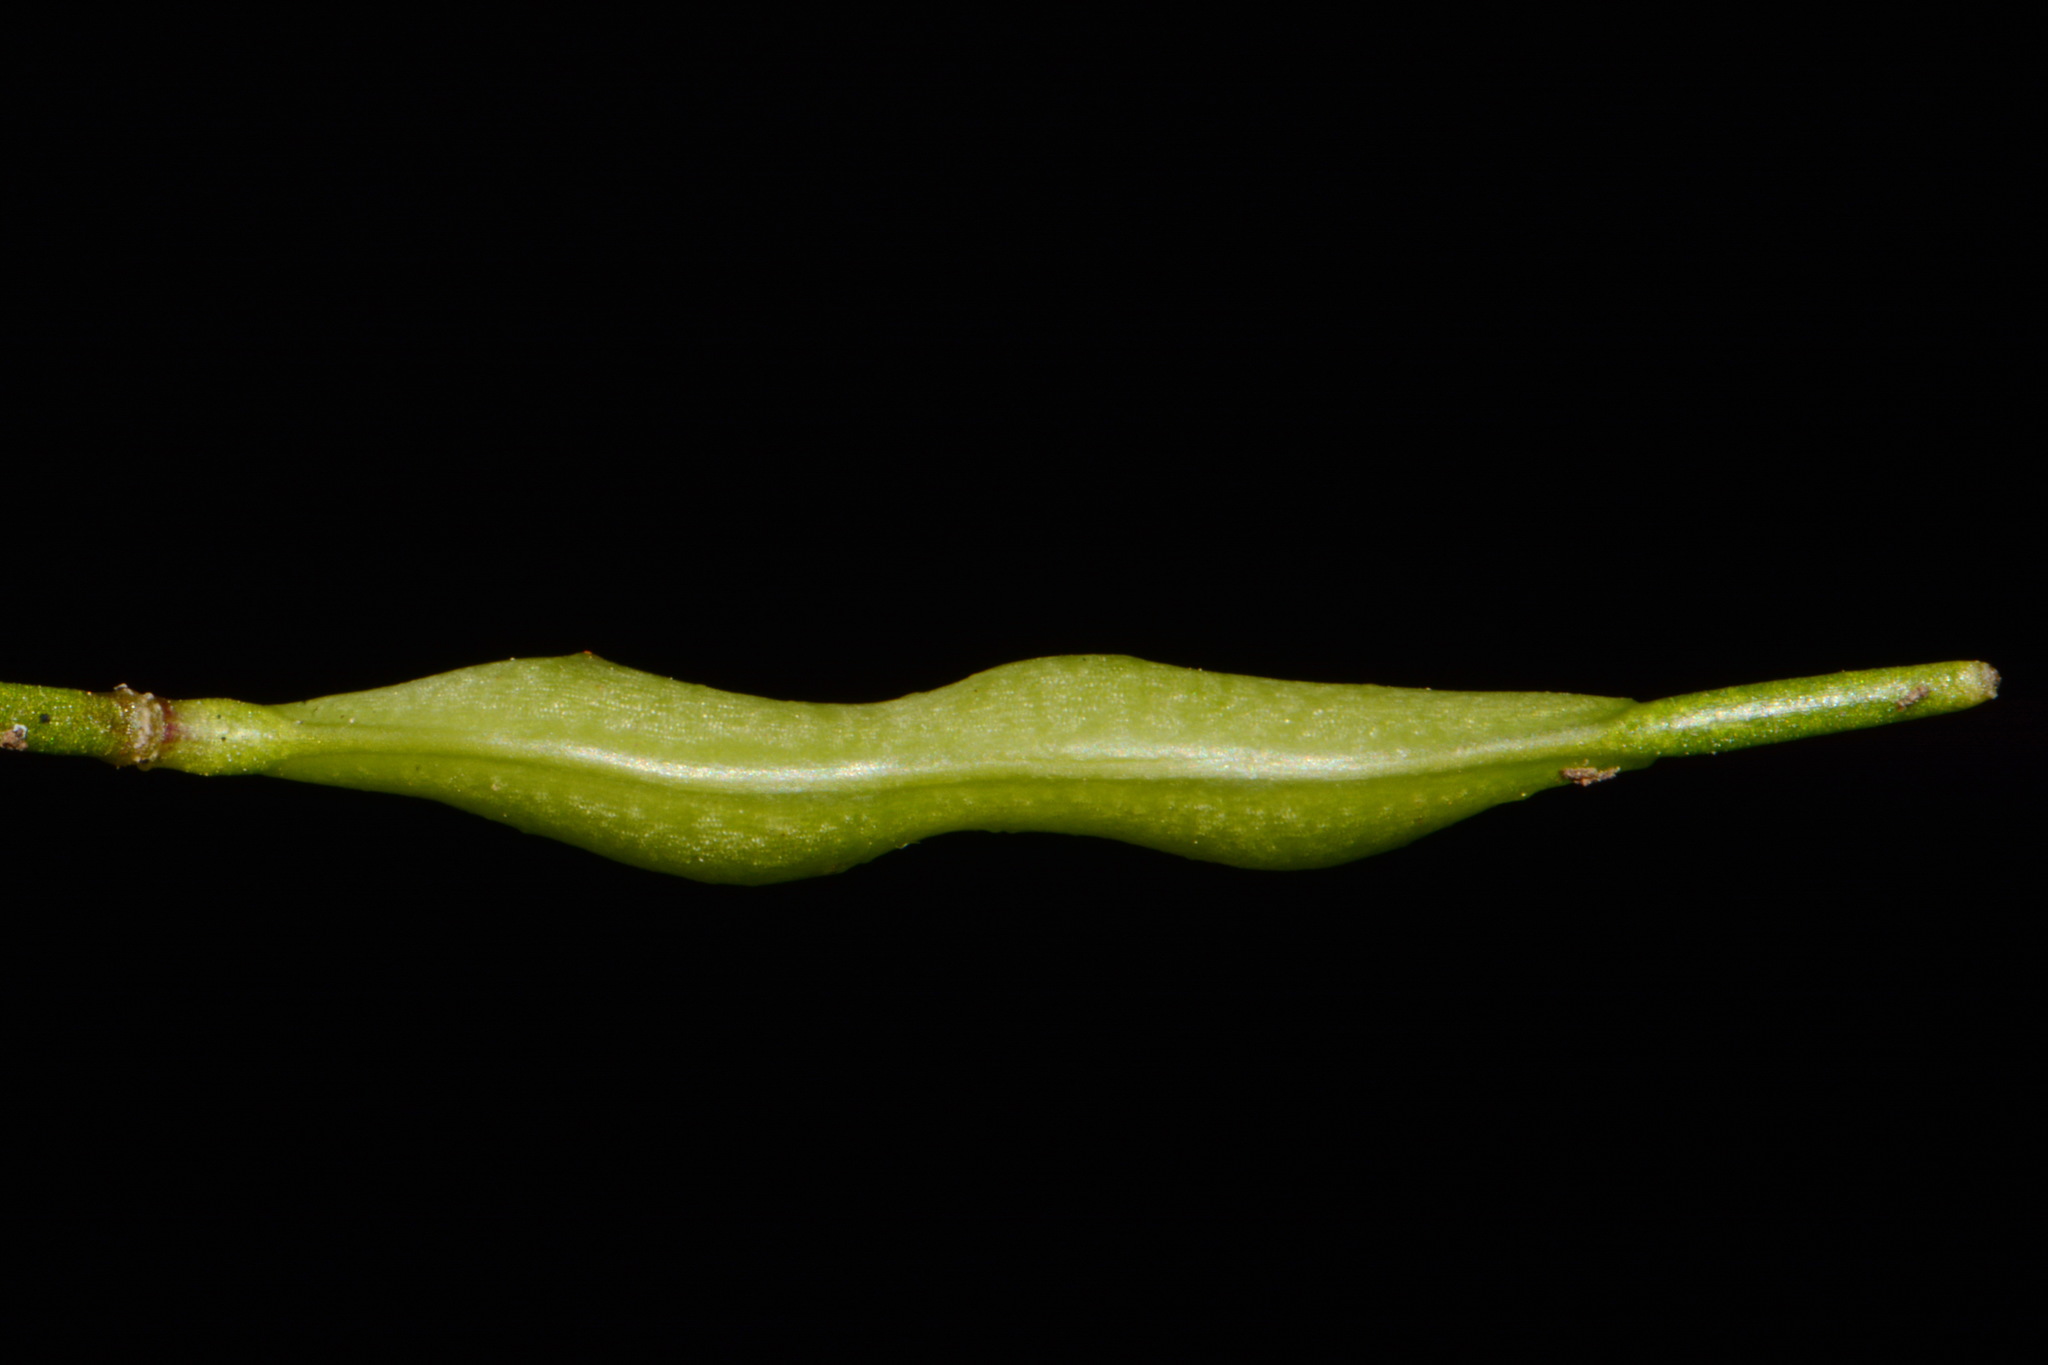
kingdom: Plantae
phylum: Tracheophyta
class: Magnoliopsida
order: Brassicales
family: Brassicaceae
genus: Leavenworthia
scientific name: Leavenworthia stylosa
